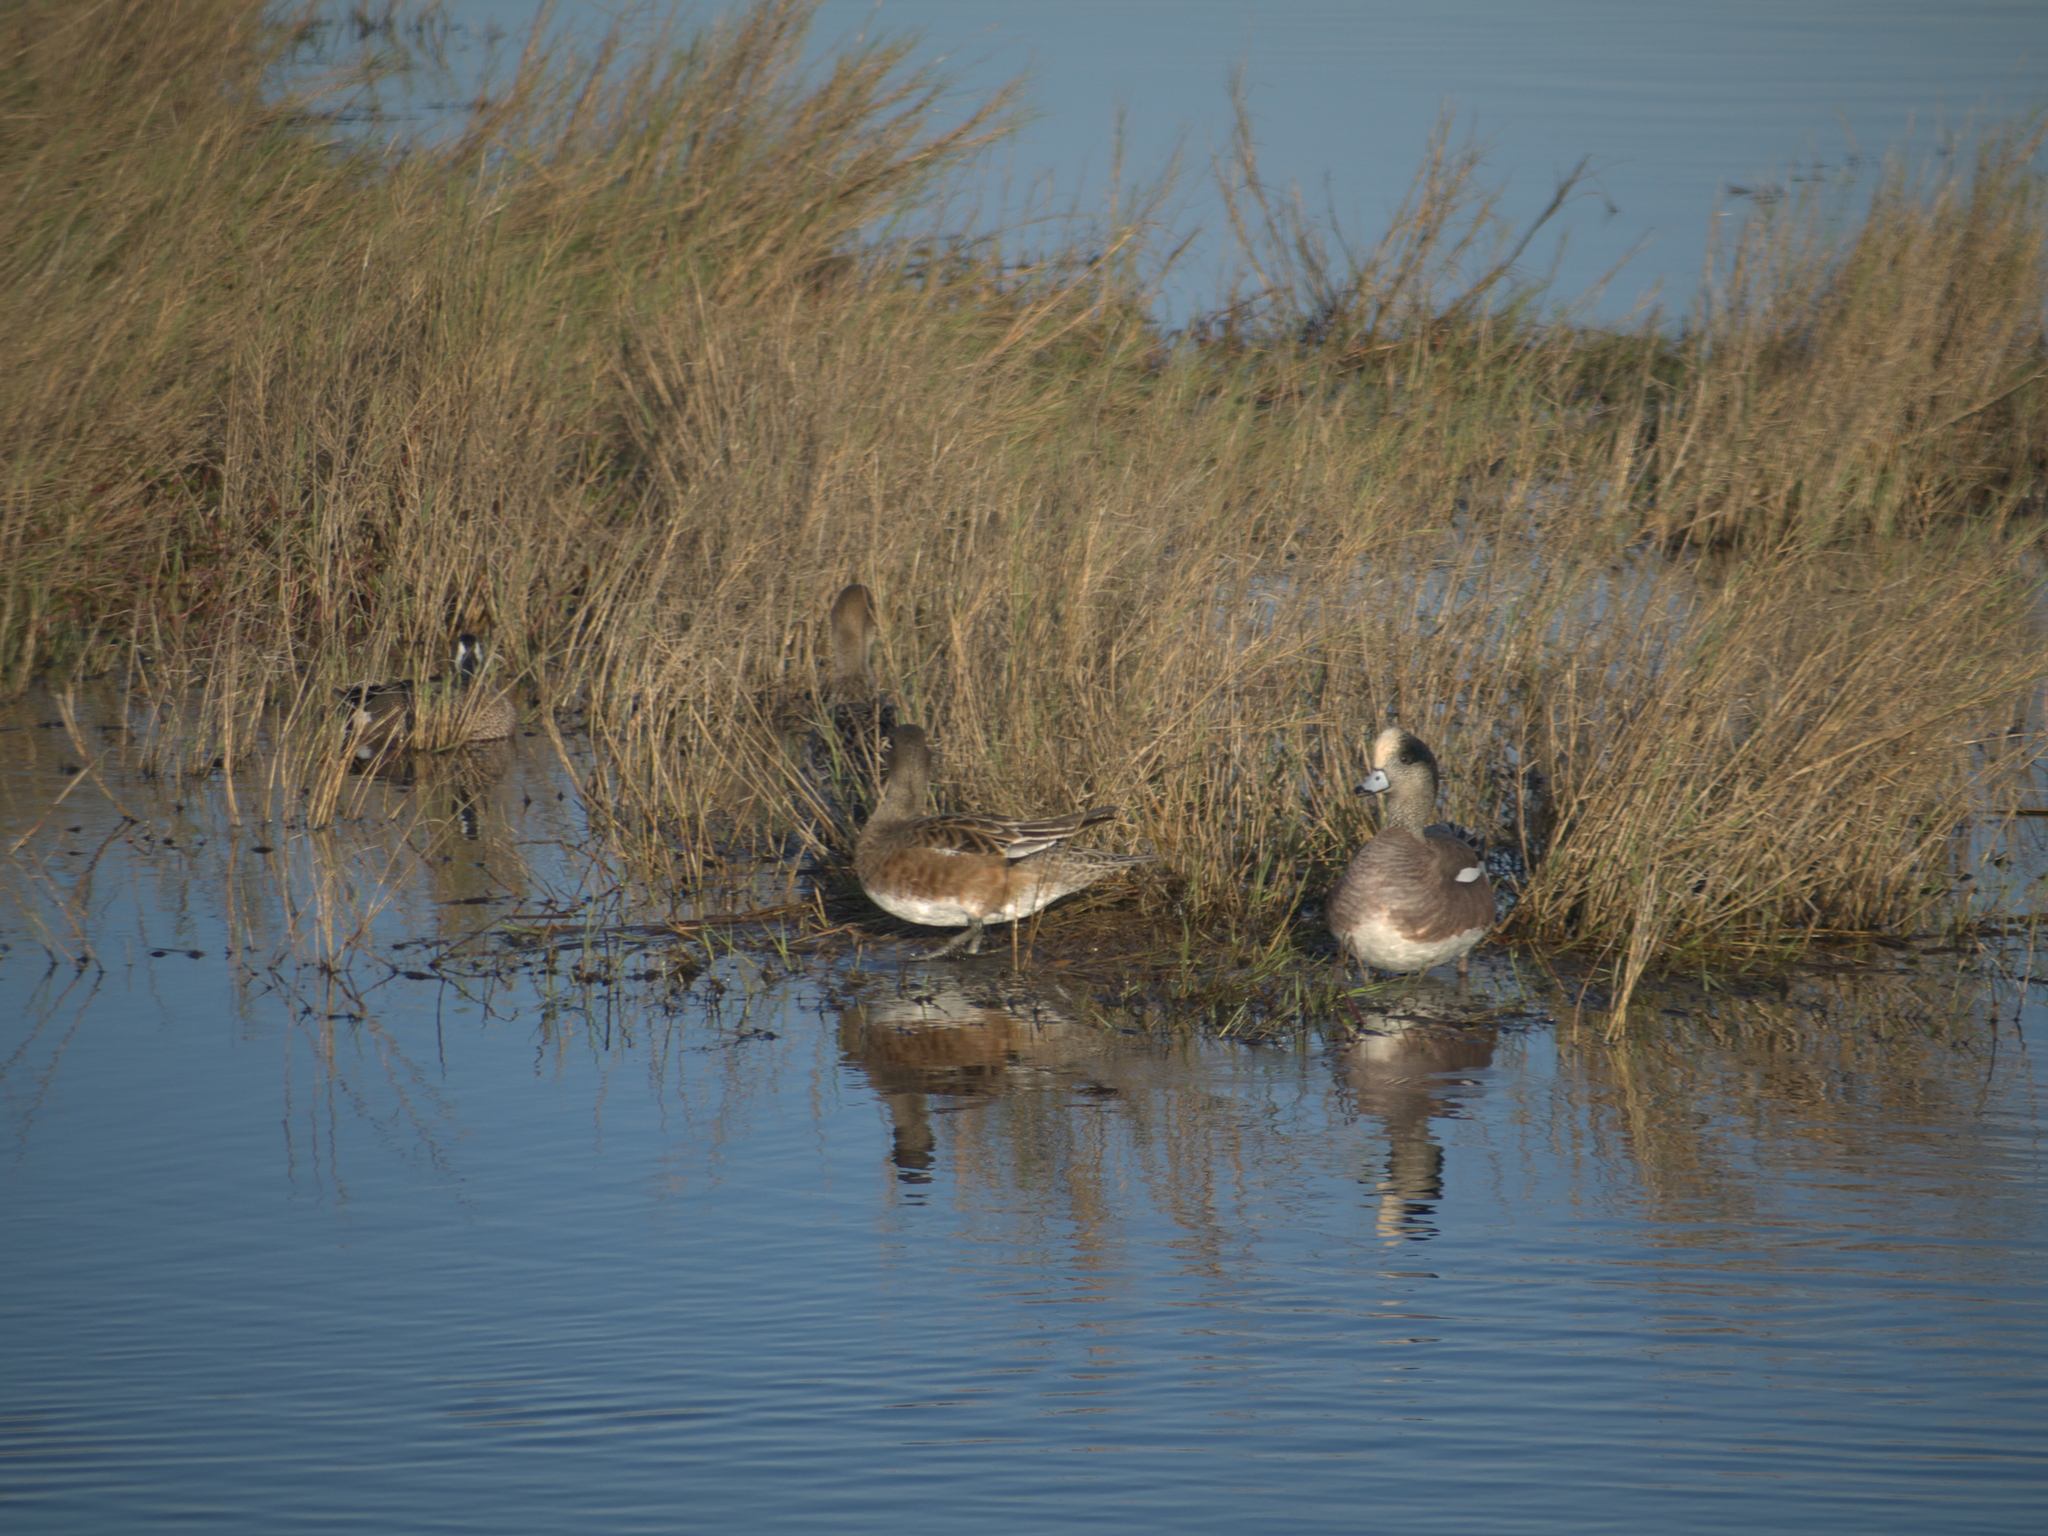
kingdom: Animalia
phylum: Chordata
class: Aves
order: Anseriformes
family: Anatidae
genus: Mareca
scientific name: Mareca americana
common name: American wigeon
